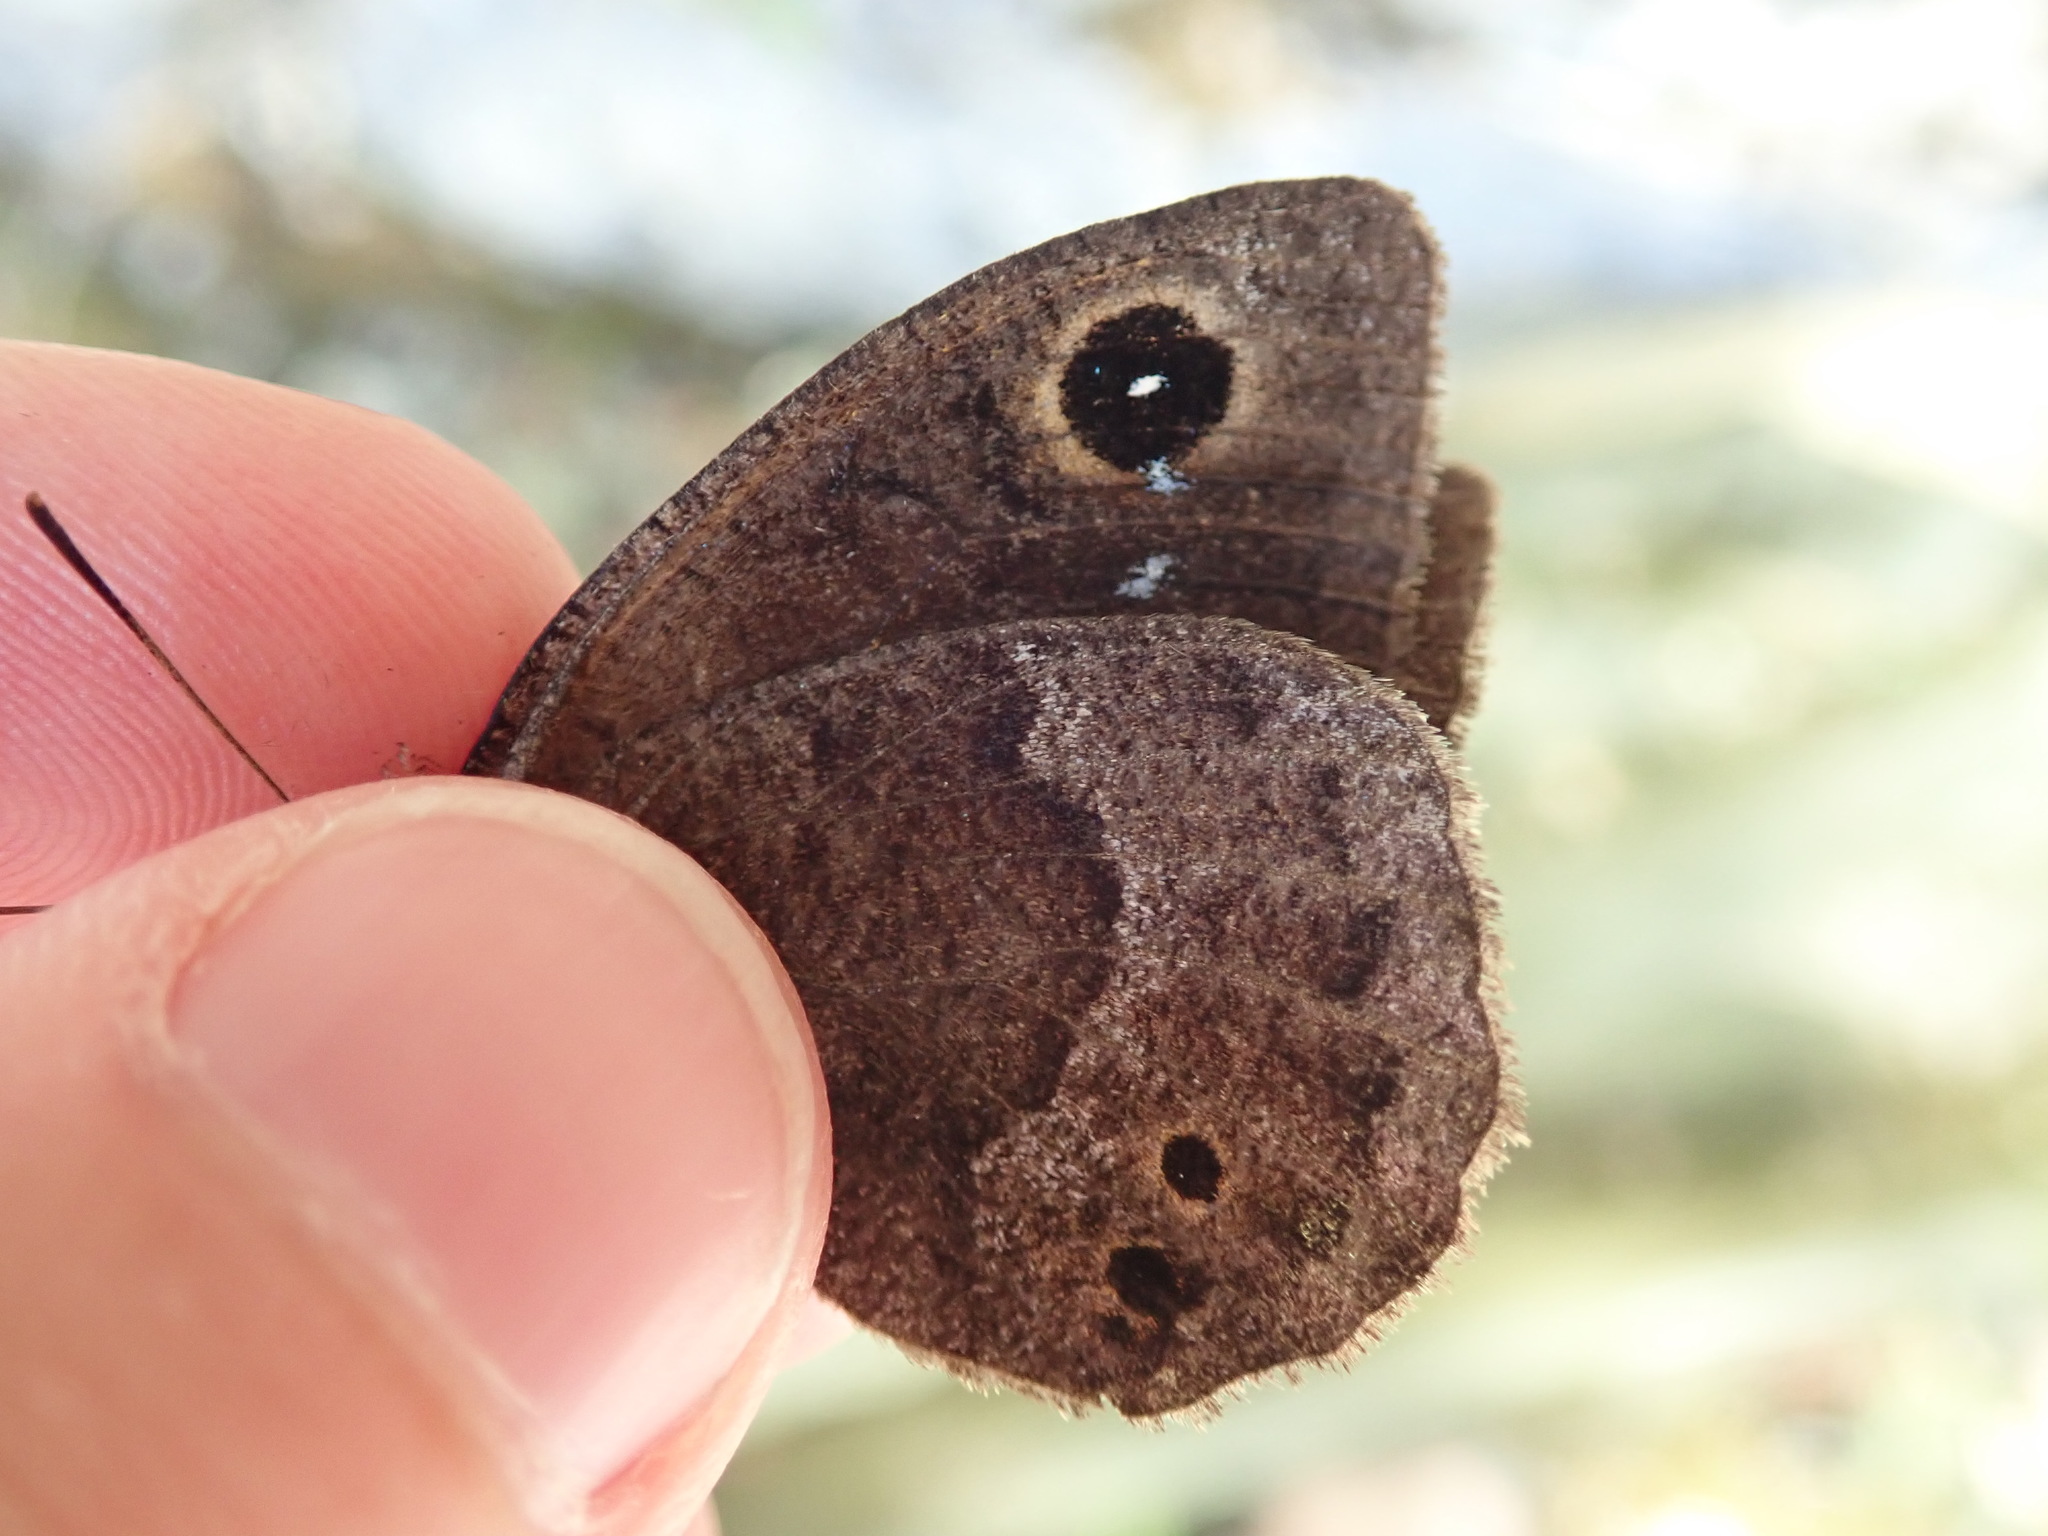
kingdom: Animalia
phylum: Arthropoda
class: Insecta
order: Lepidoptera
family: Nymphalidae
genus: Satyrus
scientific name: Satyrus ferula
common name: Great sooty satyr
